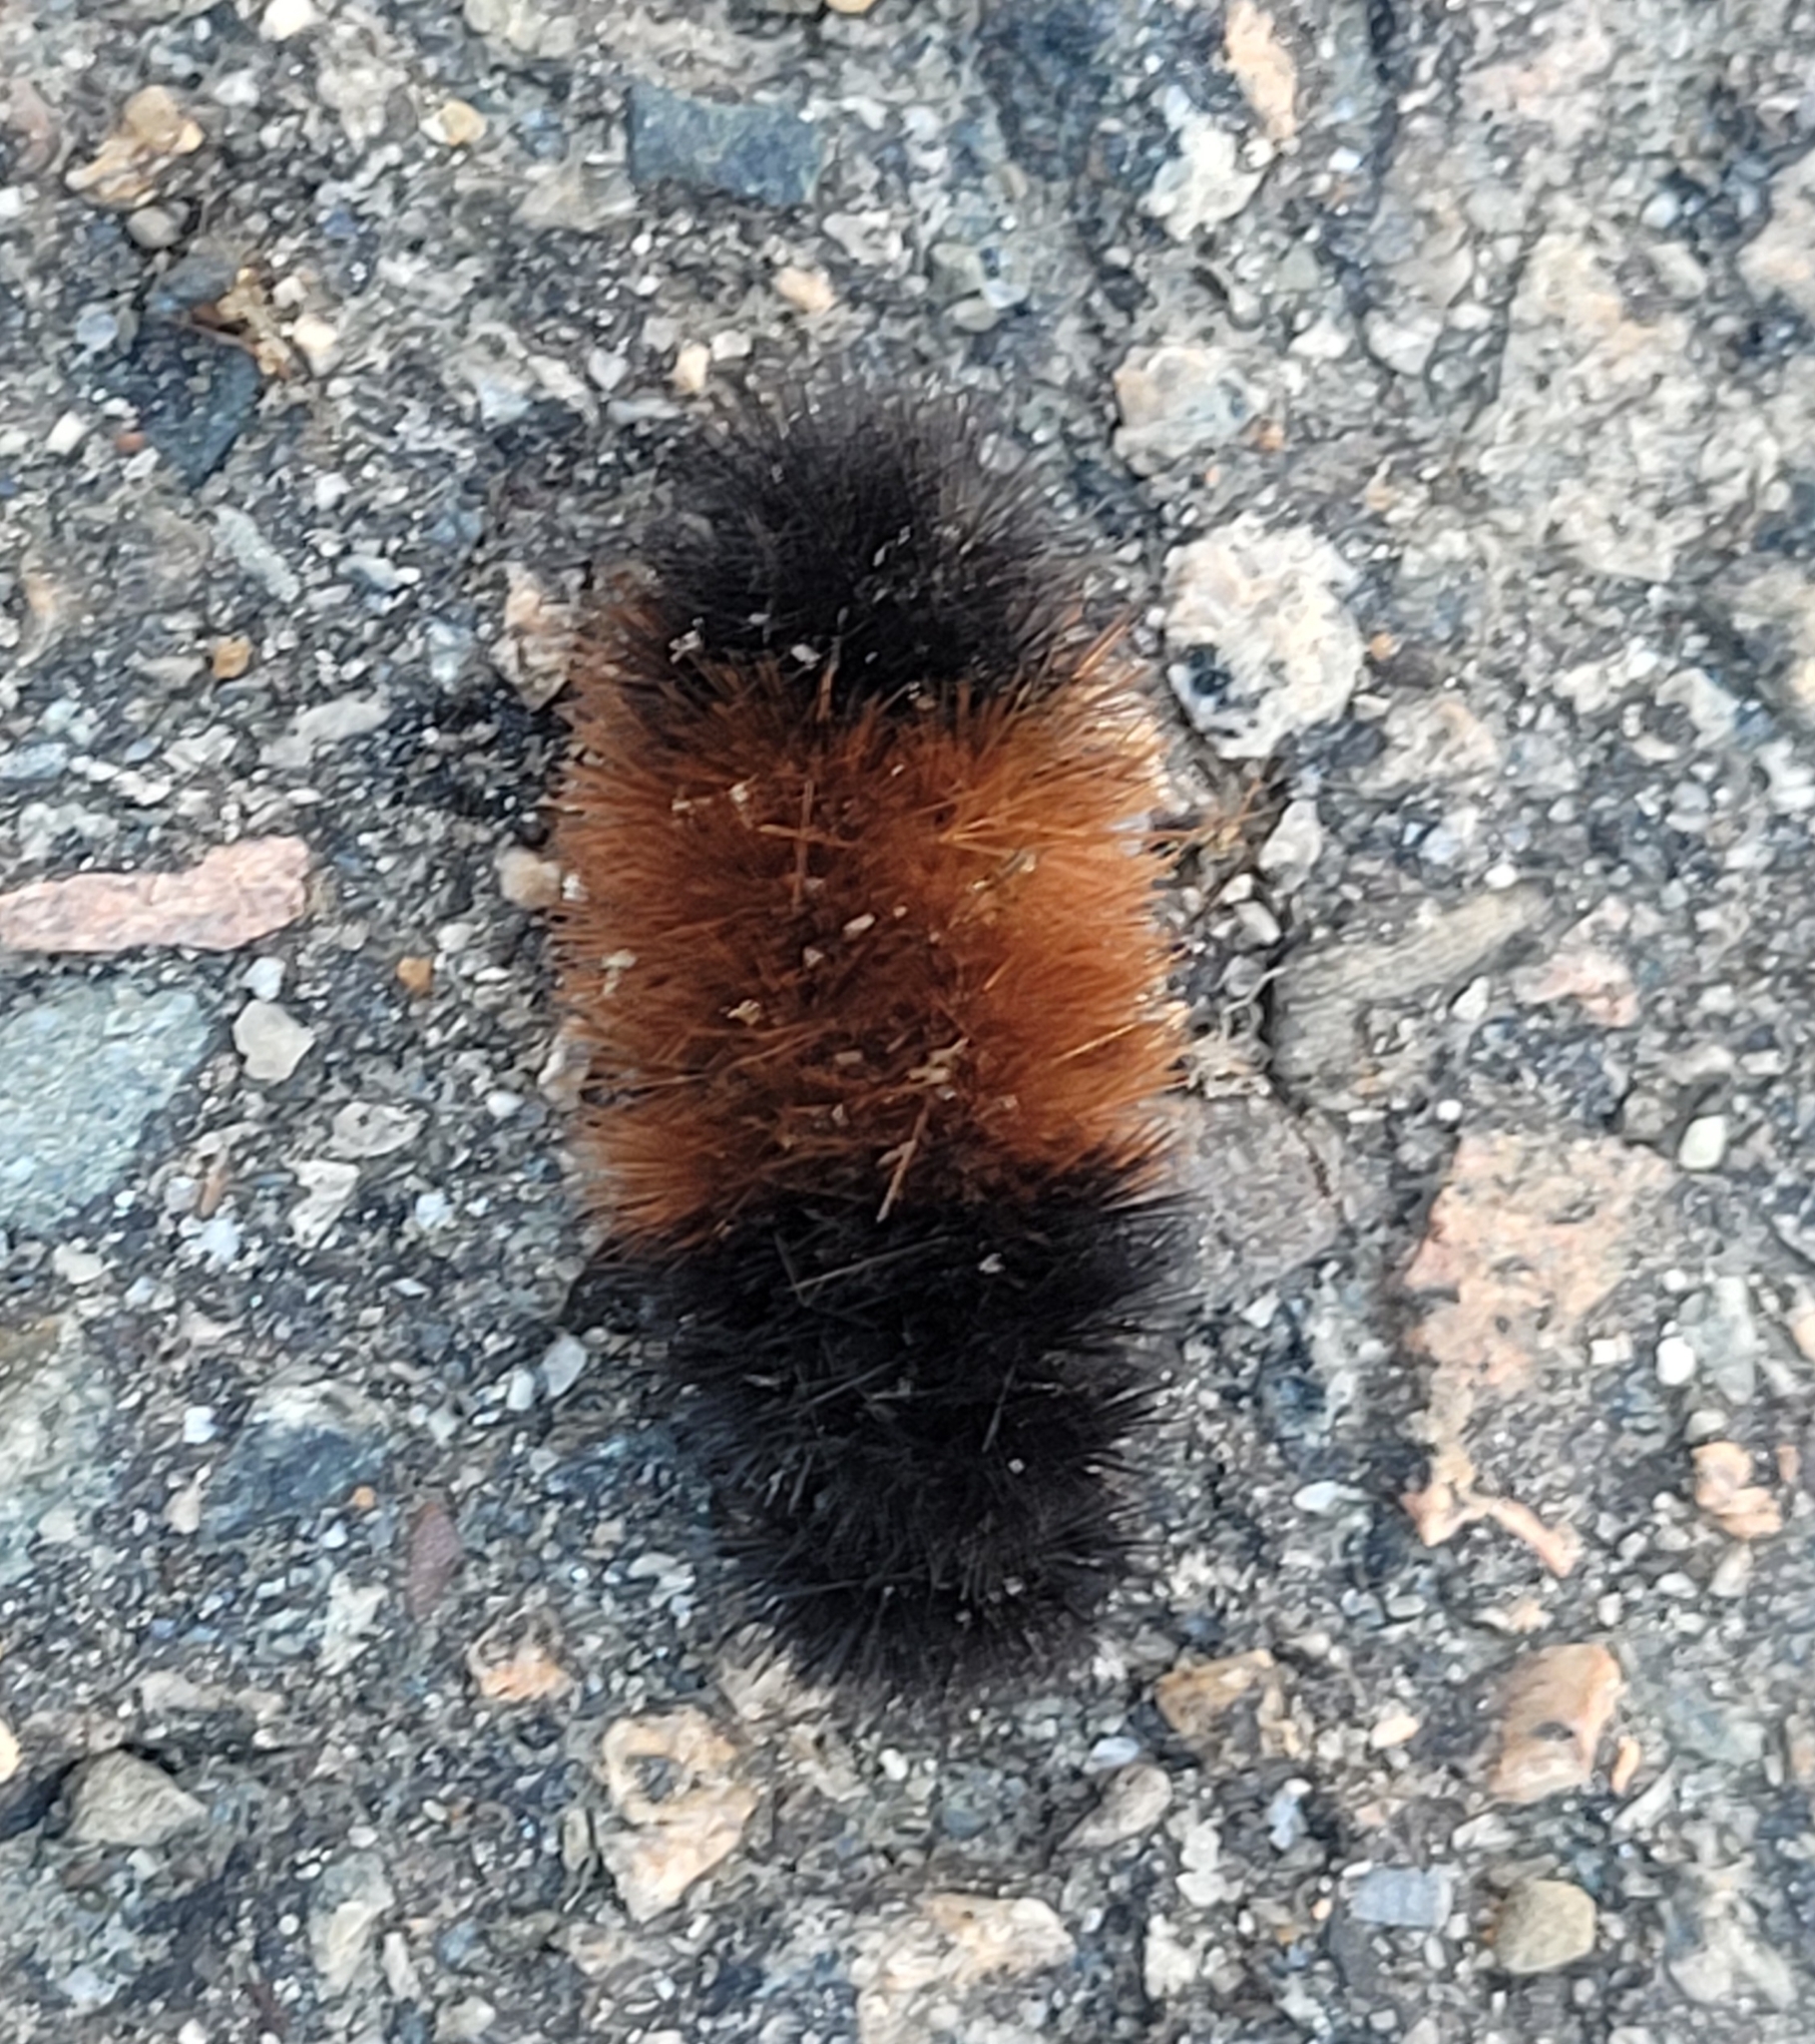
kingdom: Animalia
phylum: Arthropoda
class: Insecta
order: Lepidoptera
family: Erebidae
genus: Pyrrharctia
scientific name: Pyrrharctia isabella
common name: Isabella tiger moth
